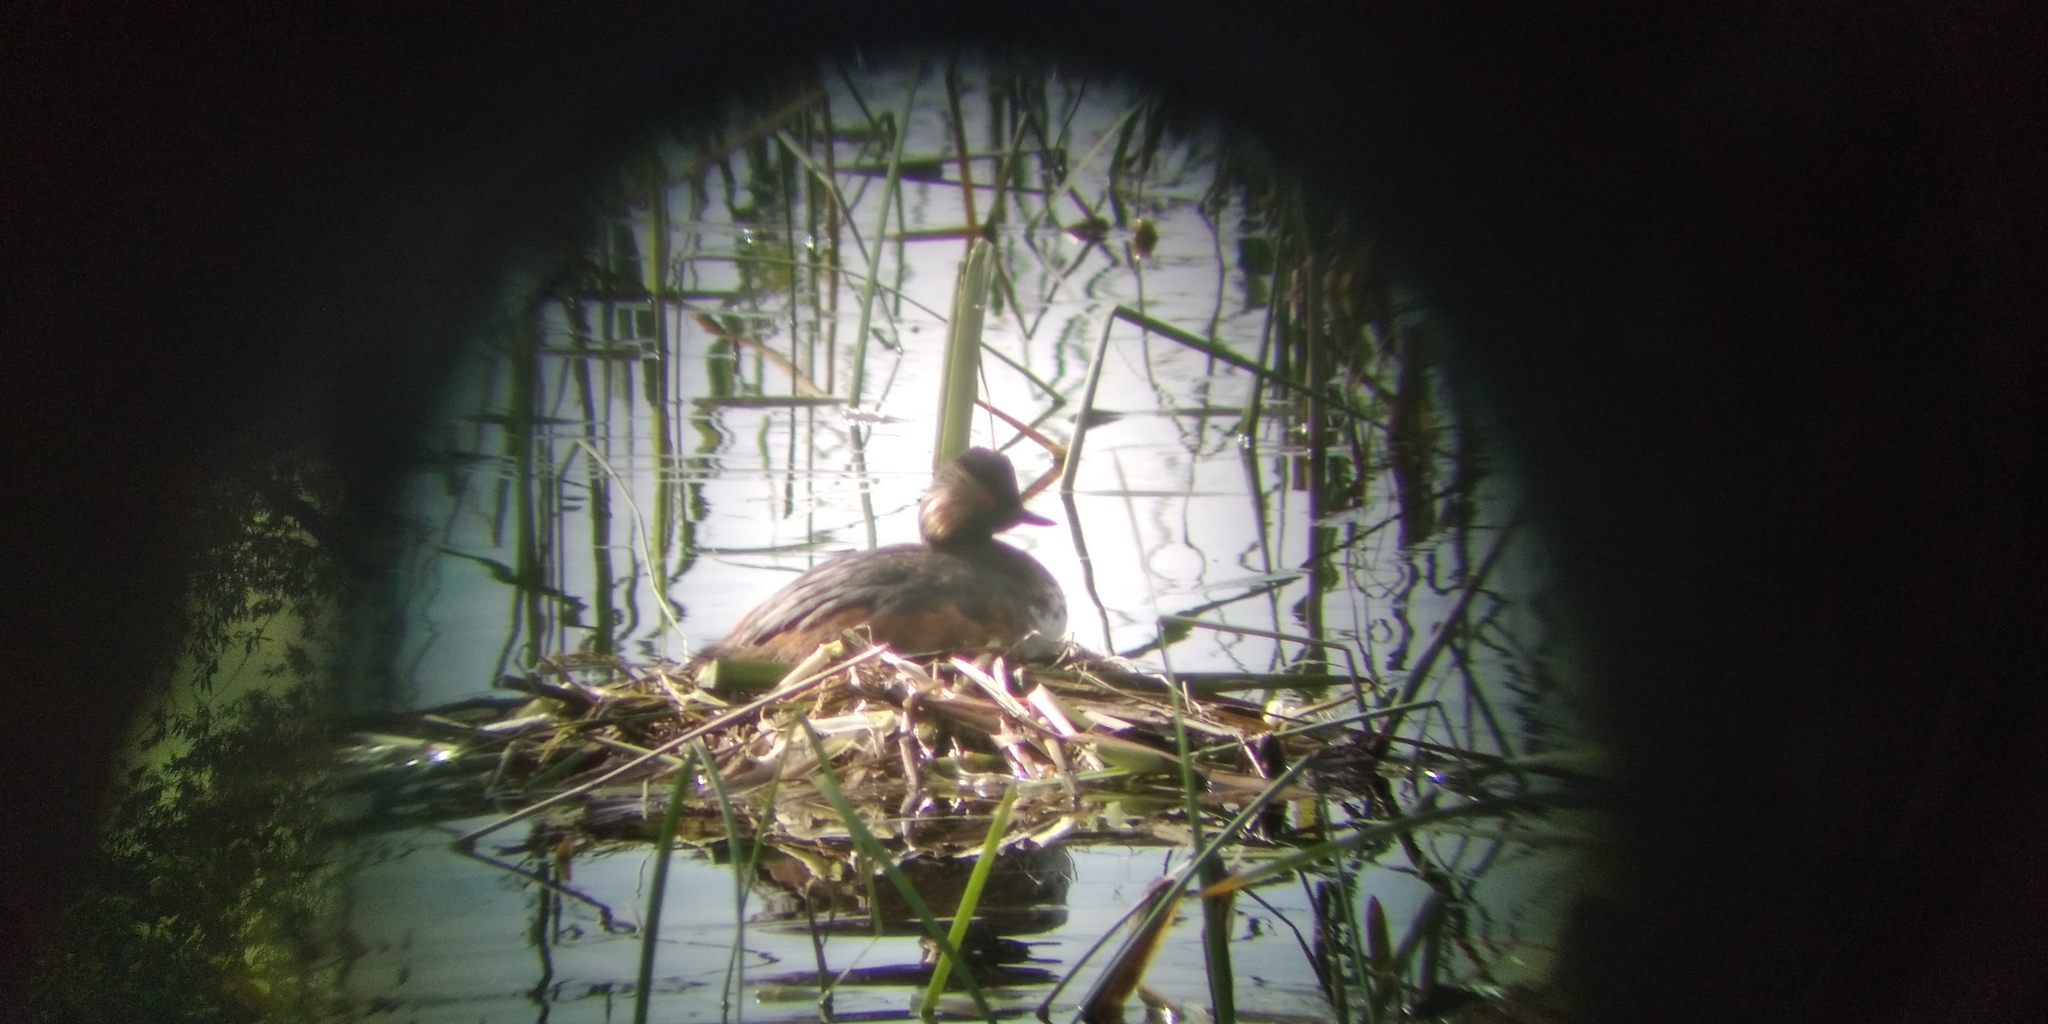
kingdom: Animalia
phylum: Chordata
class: Aves
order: Podicipediformes
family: Podicipedidae
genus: Podiceps
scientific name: Podiceps nigricollis
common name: Black-necked grebe
